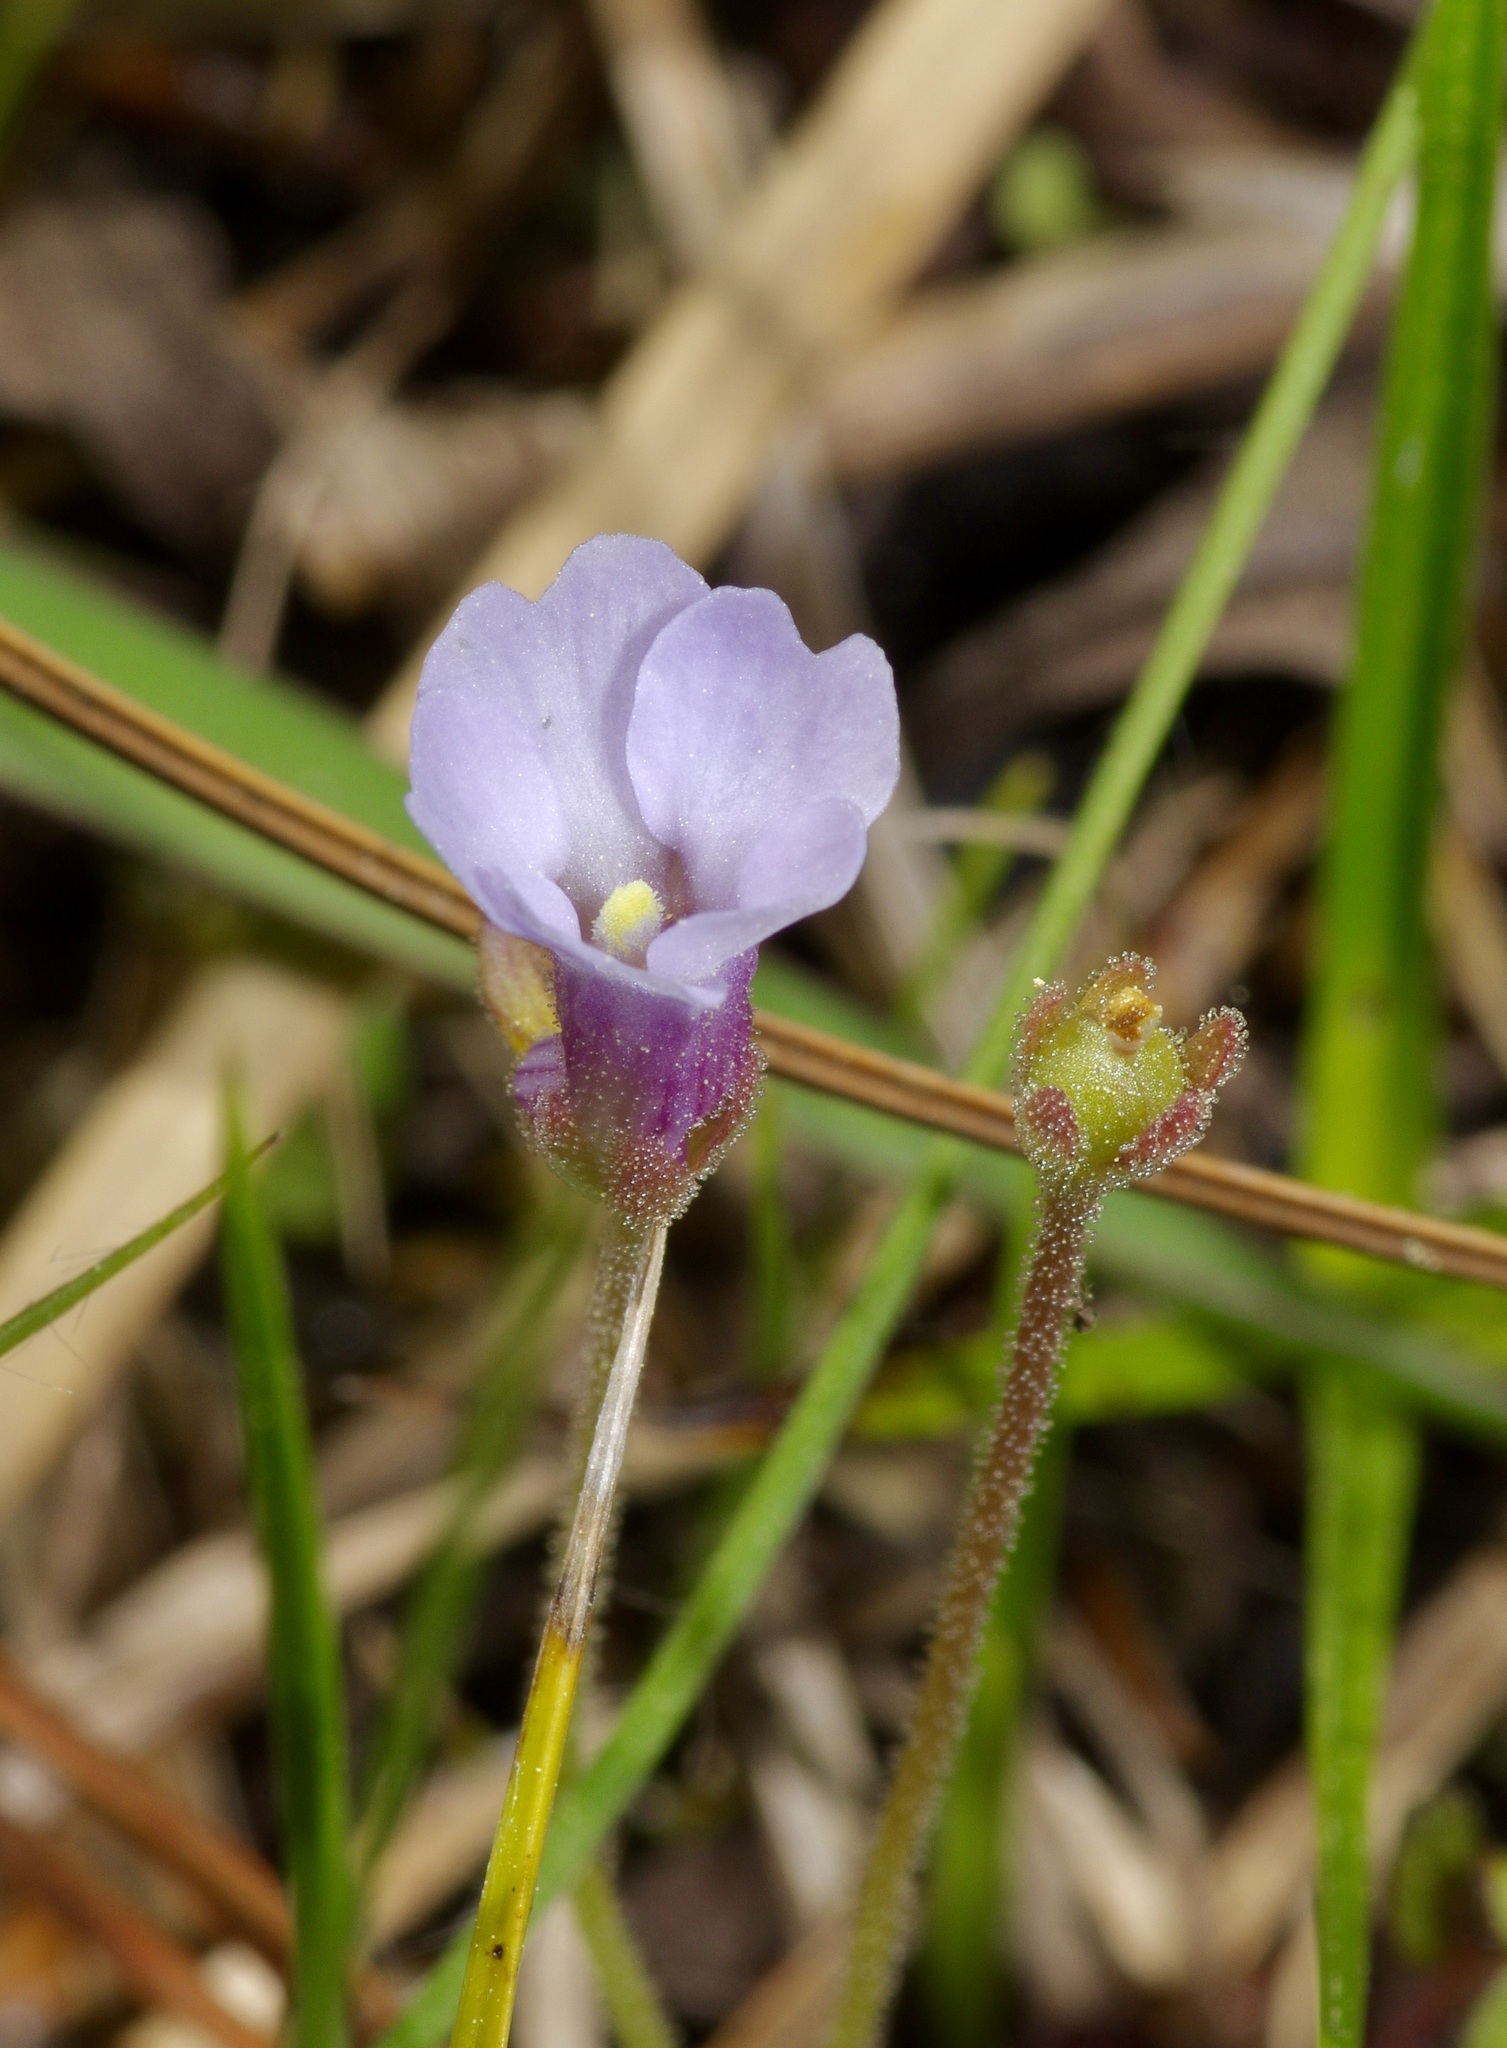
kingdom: Plantae
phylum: Tracheophyta
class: Magnoliopsida
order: Lamiales
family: Lentibulariaceae
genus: Pinguicula
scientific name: Pinguicula pumila
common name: Small butterwort
